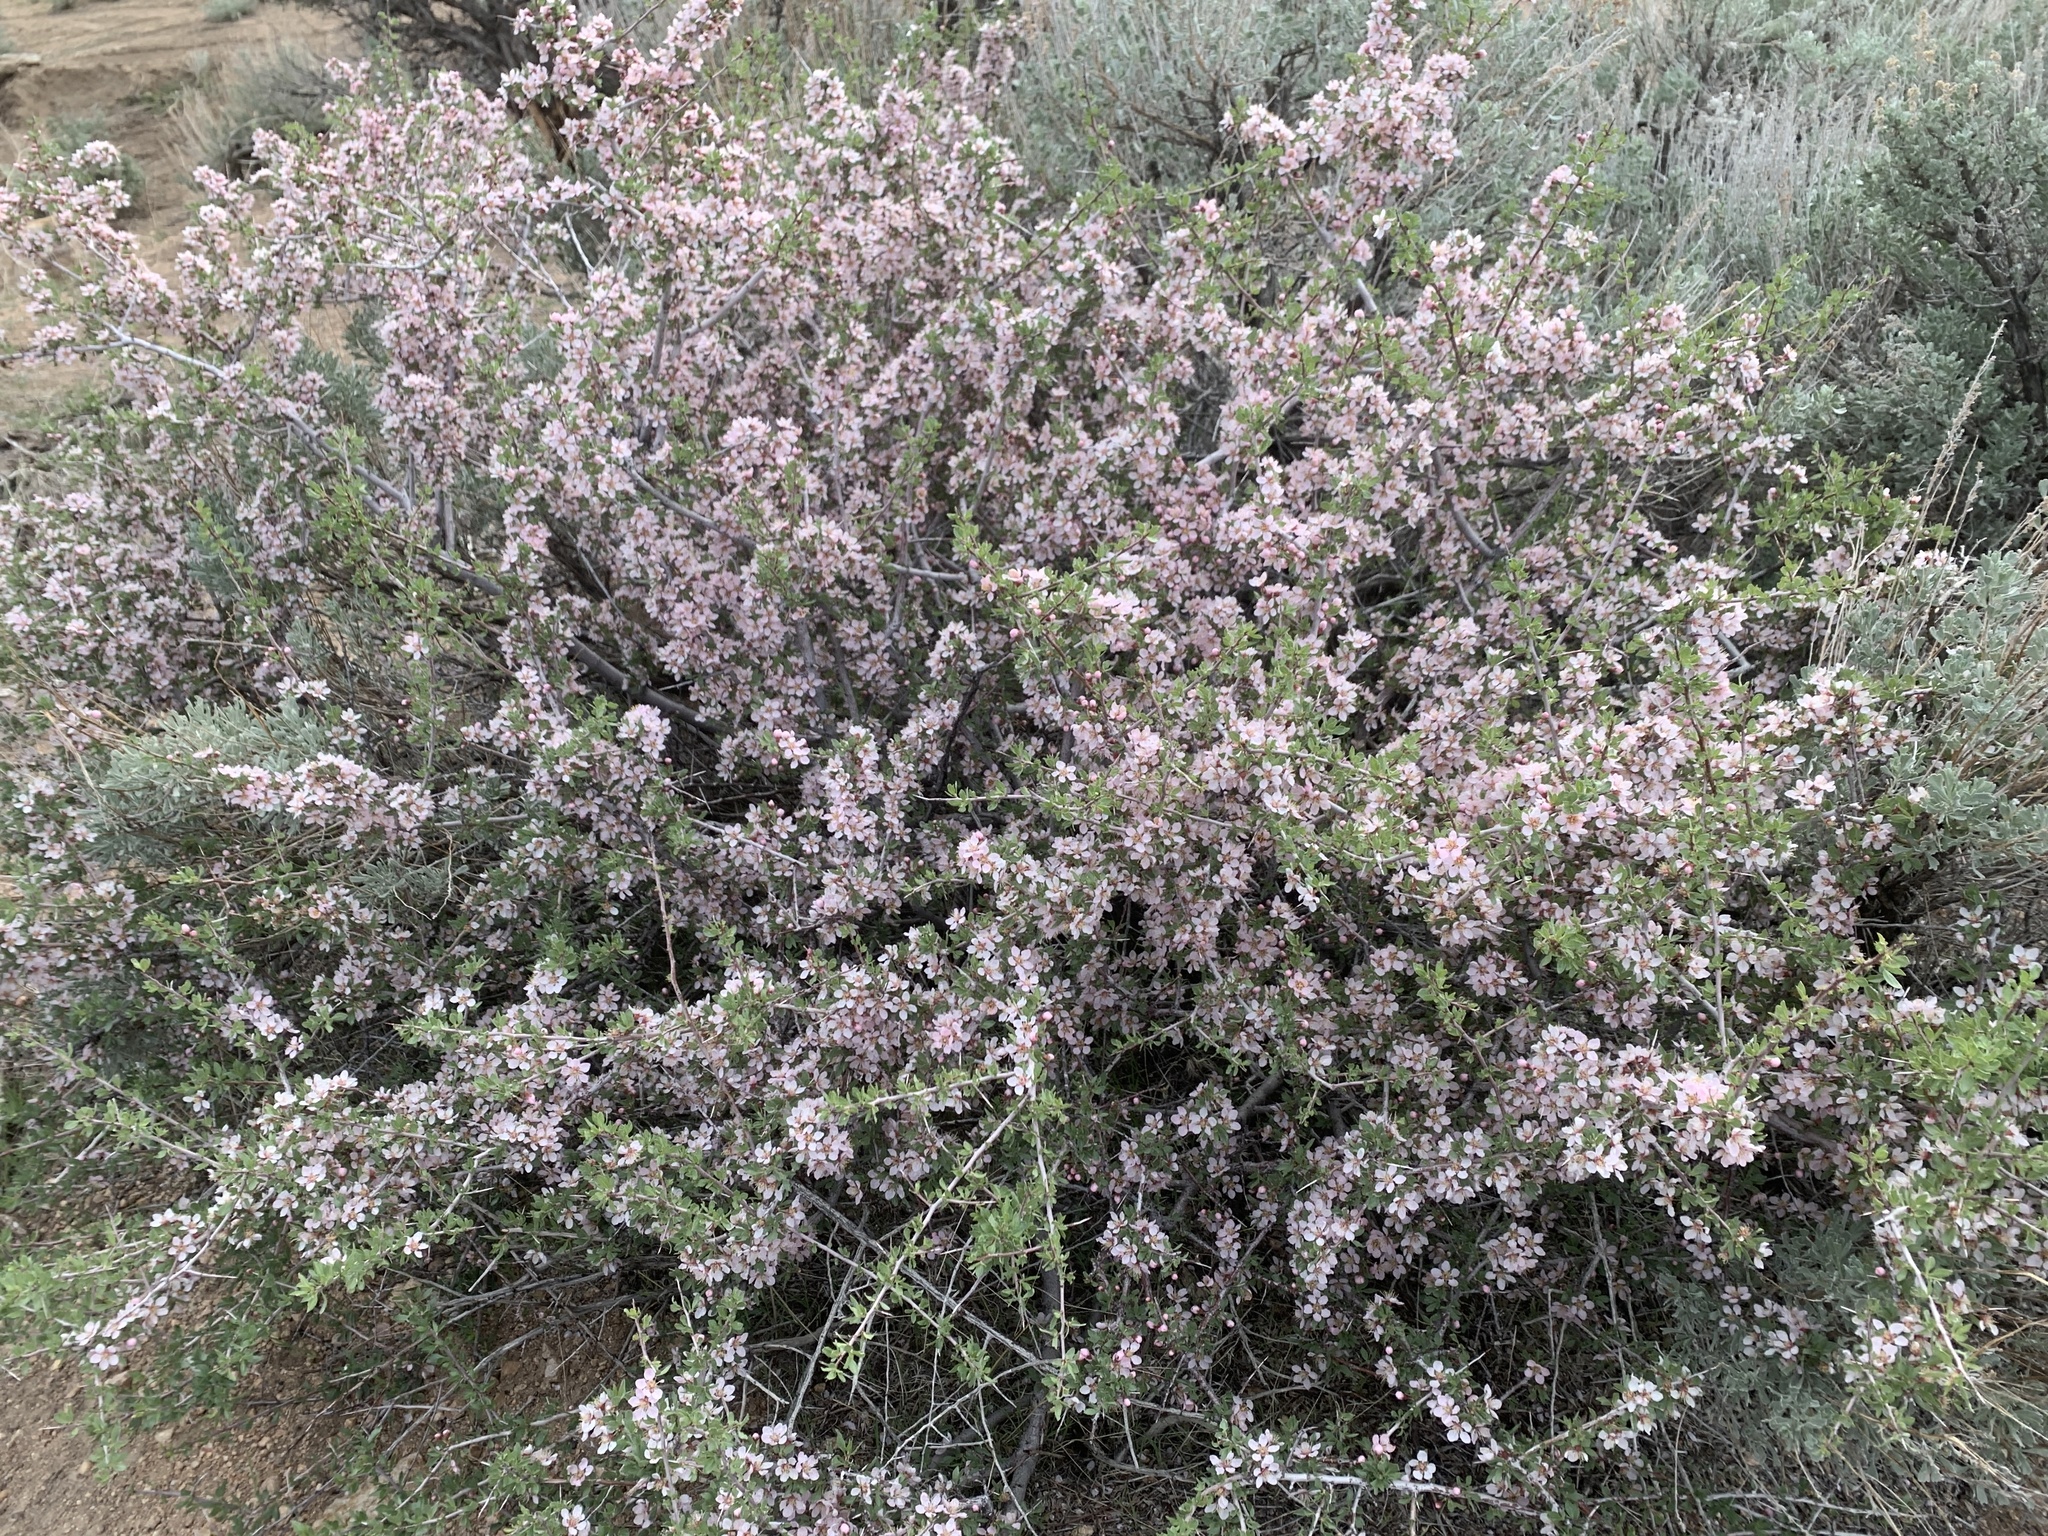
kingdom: Plantae
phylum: Tracheophyta
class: Magnoliopsida
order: Rosales
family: Rosaceae
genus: Prunus
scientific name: Prunus andersonii
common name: Desert peach
